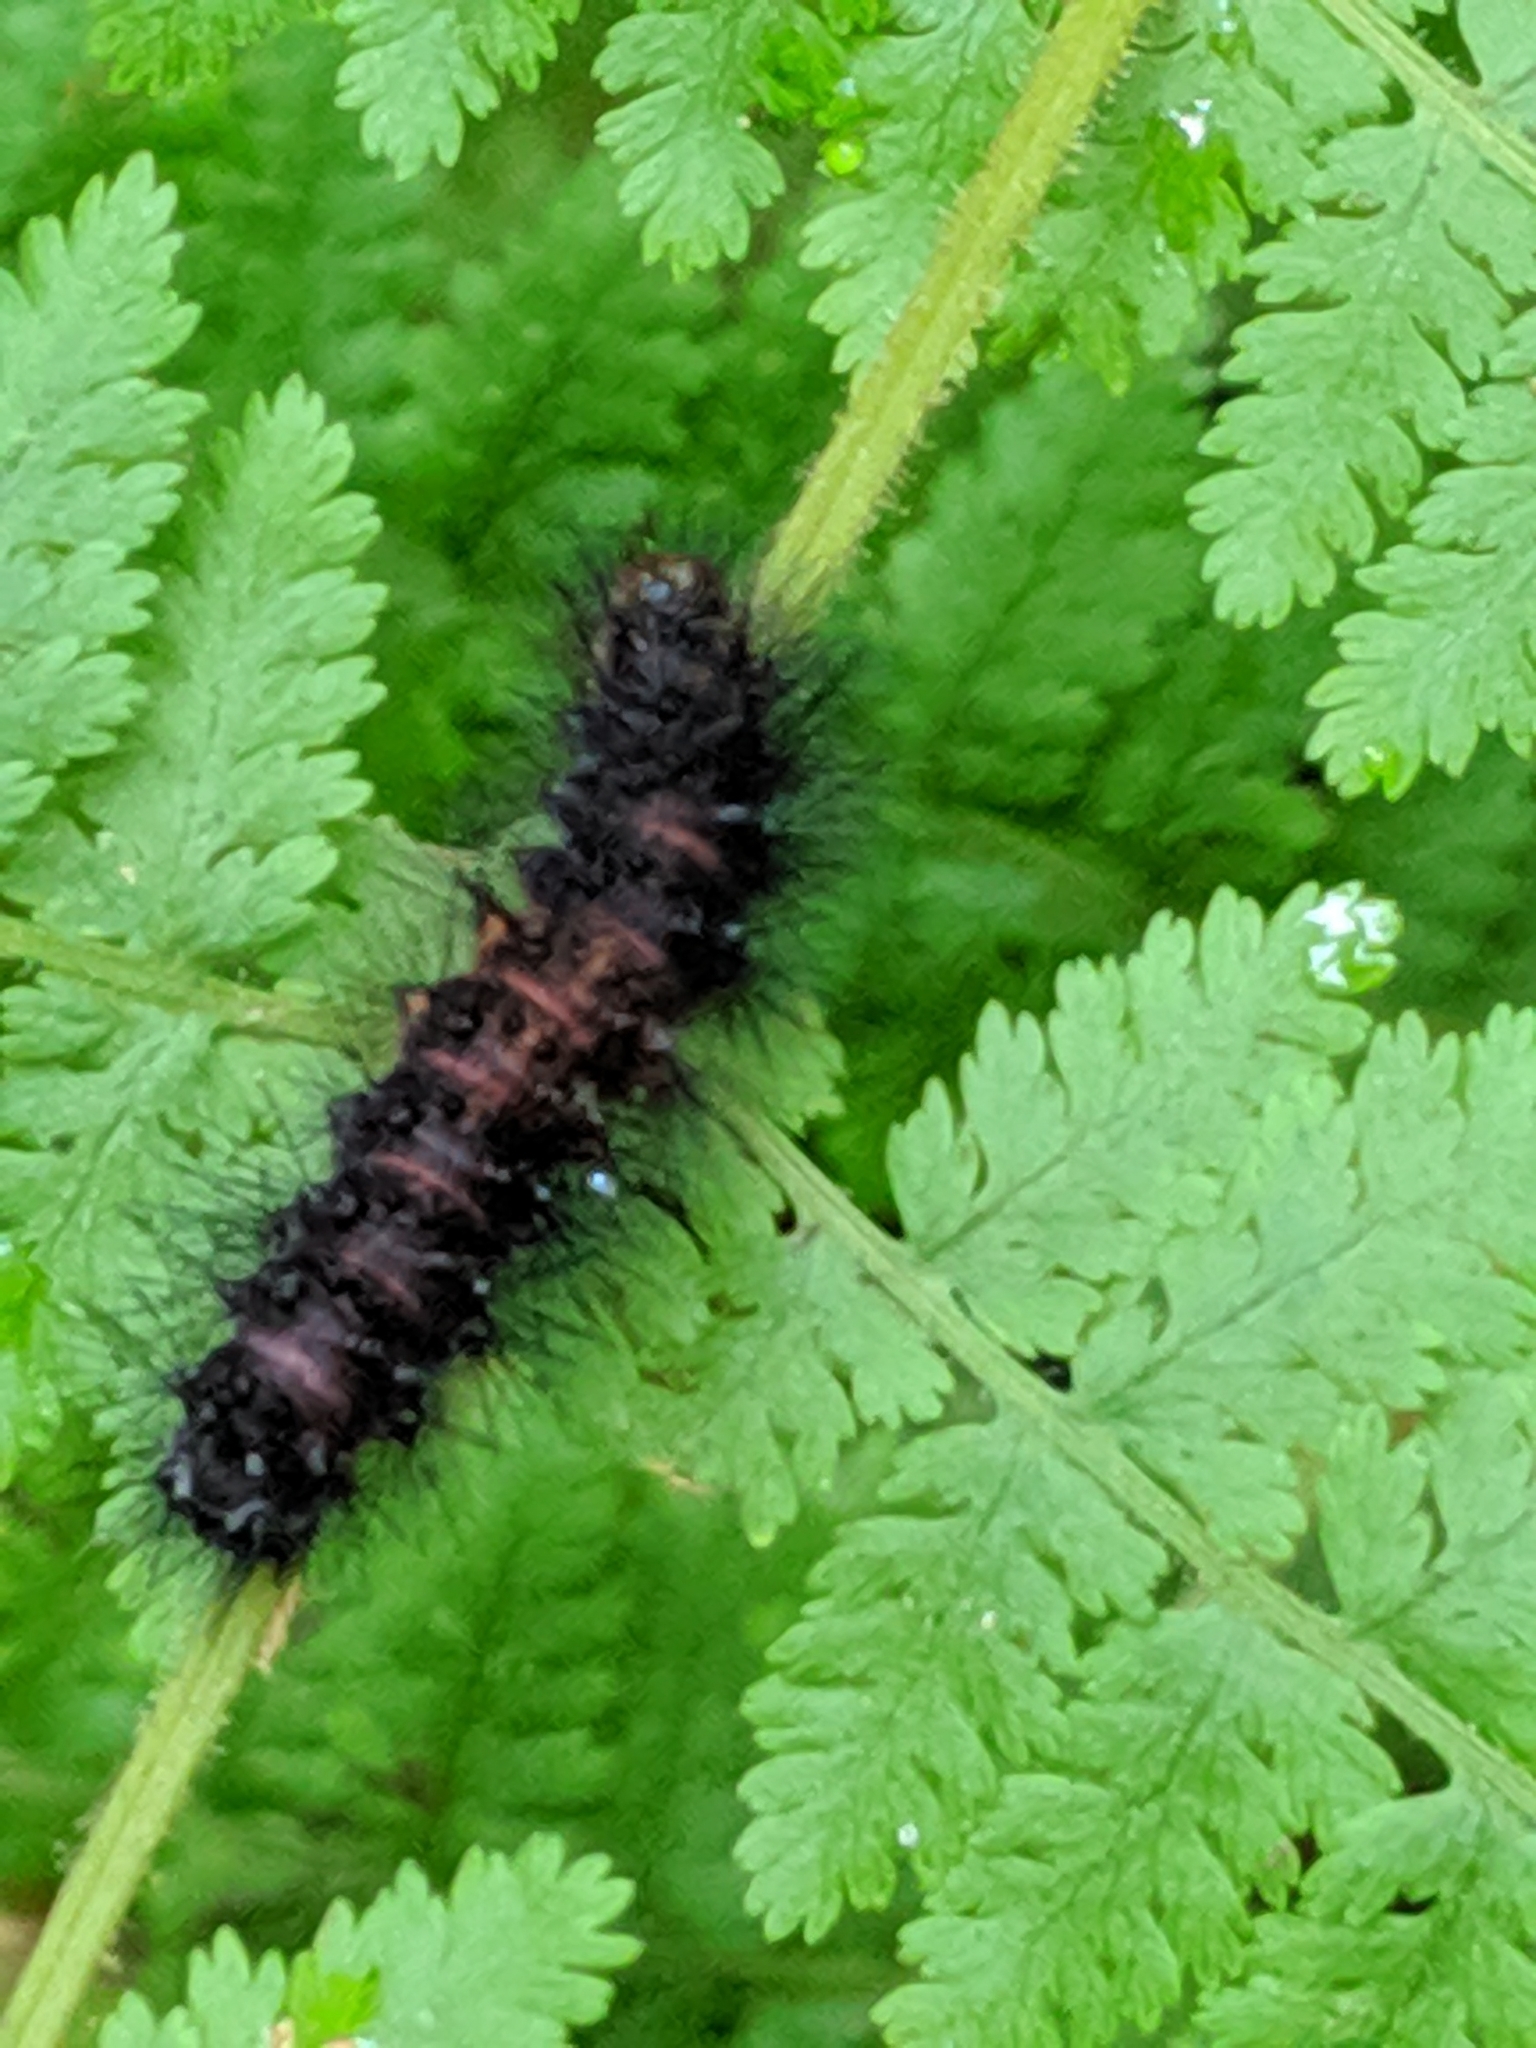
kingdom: Animalia
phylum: Arthropoda
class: Insecta
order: Lepidoptera
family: Erebidae
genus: Hypercompe
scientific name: Hypercompe scribonia
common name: Giant leopard moth
